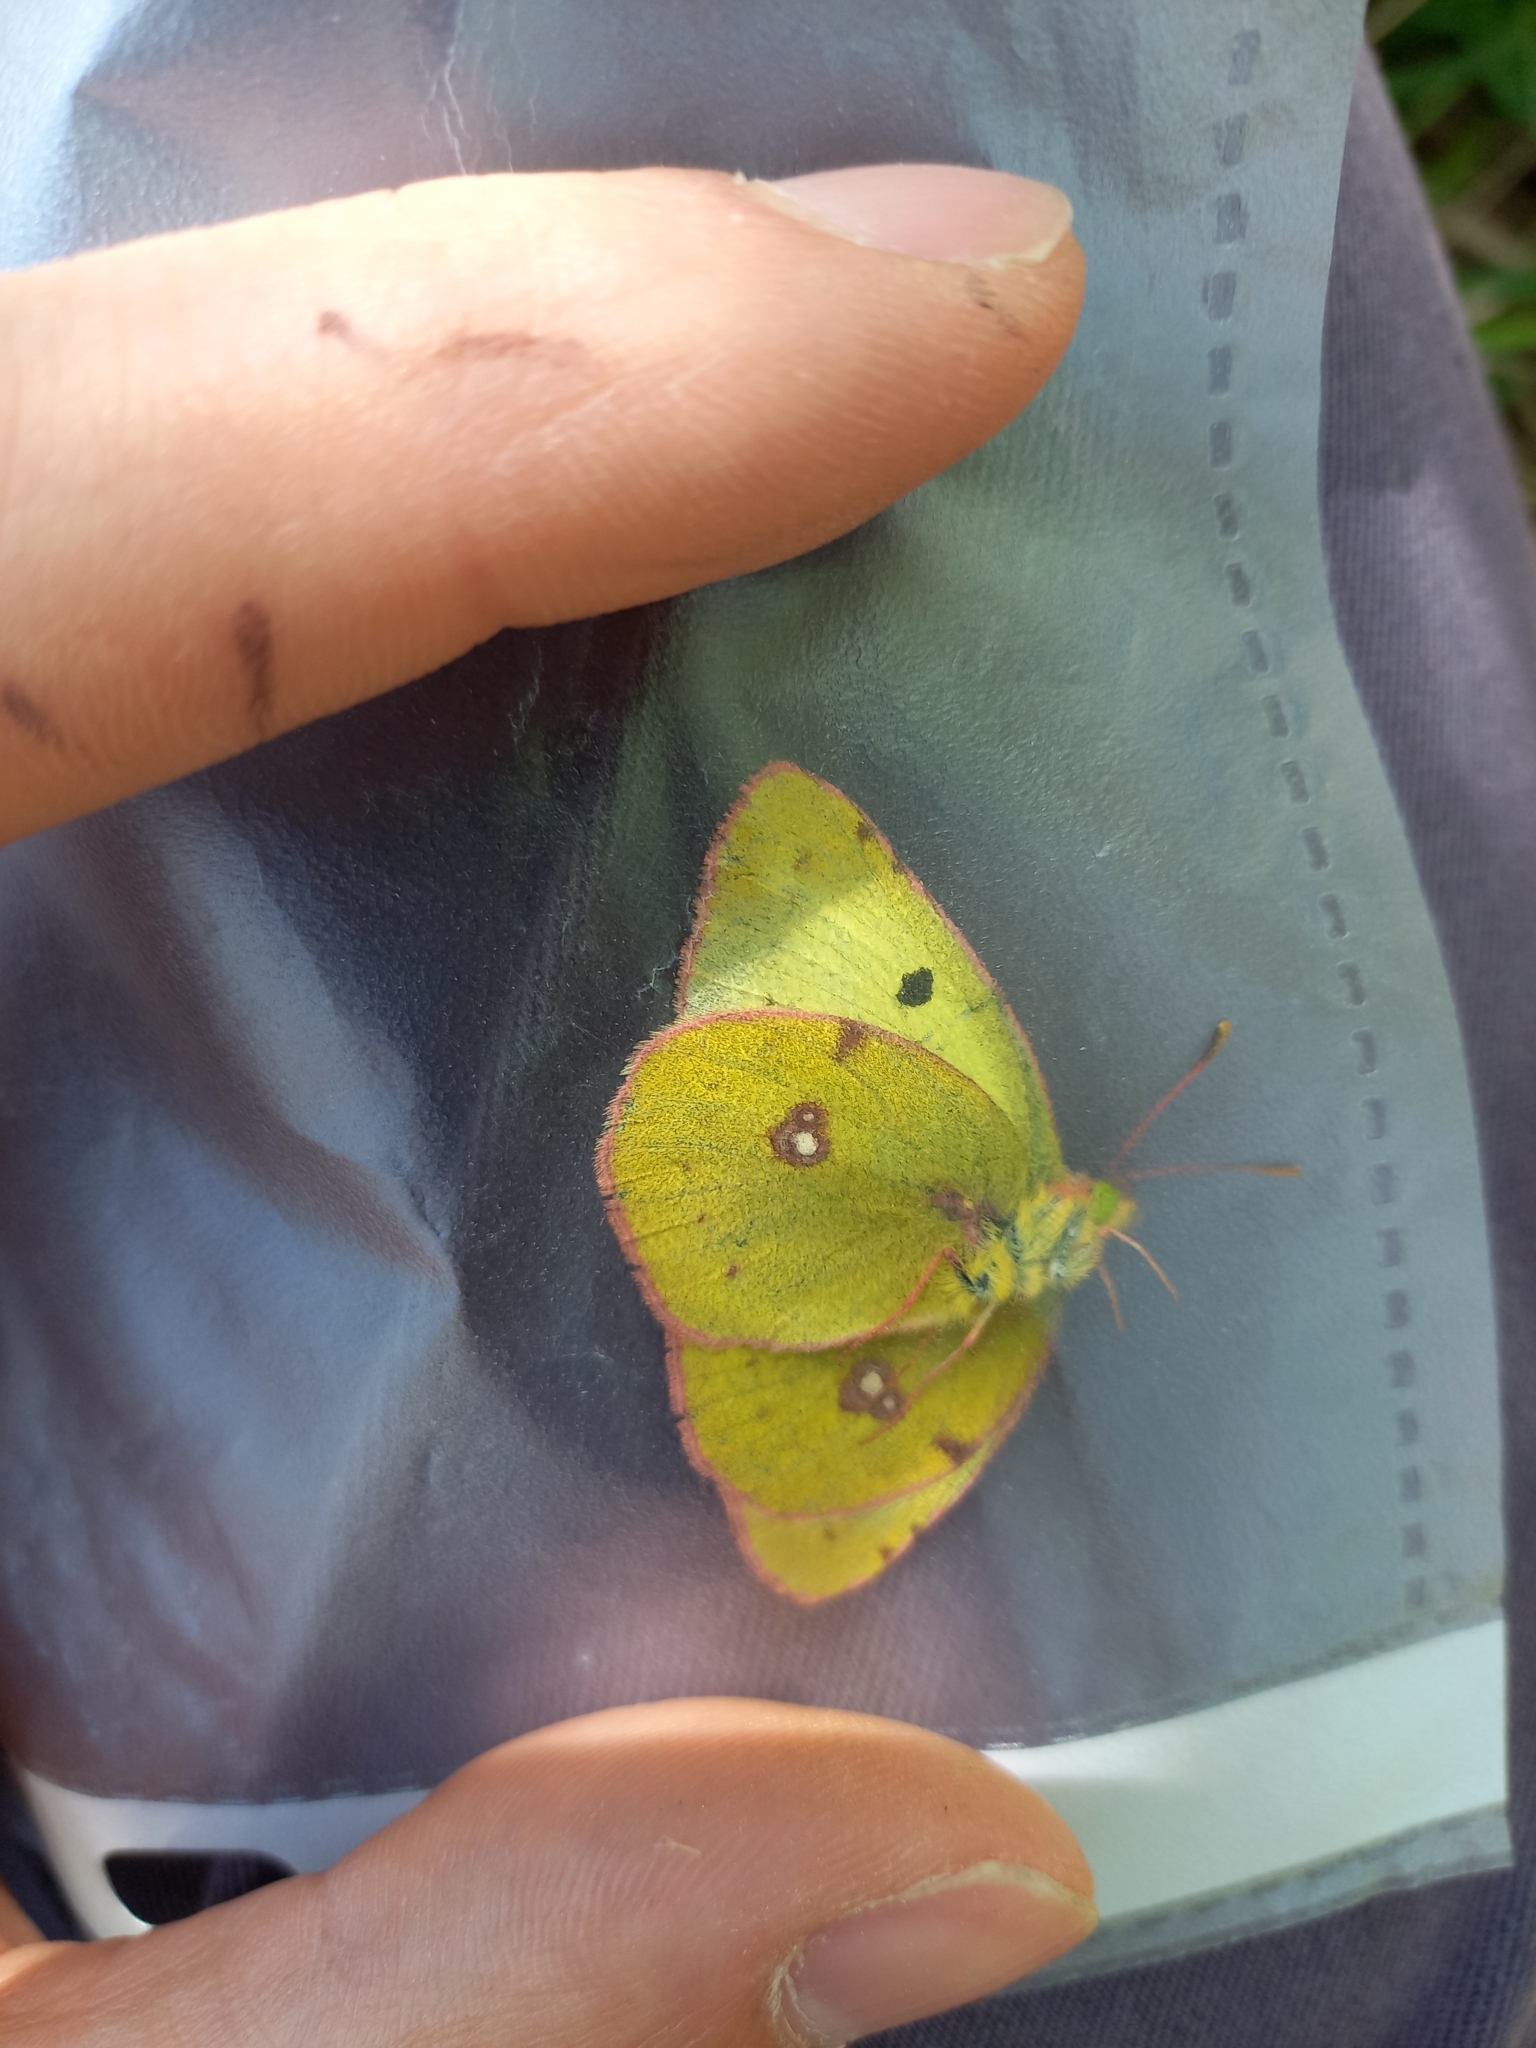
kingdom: Animalia
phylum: Arthropoda
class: Insecta
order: Lepidoptera
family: Pieridae
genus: Colias
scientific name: Colias alfacariensis
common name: Berger's clouded yellow
